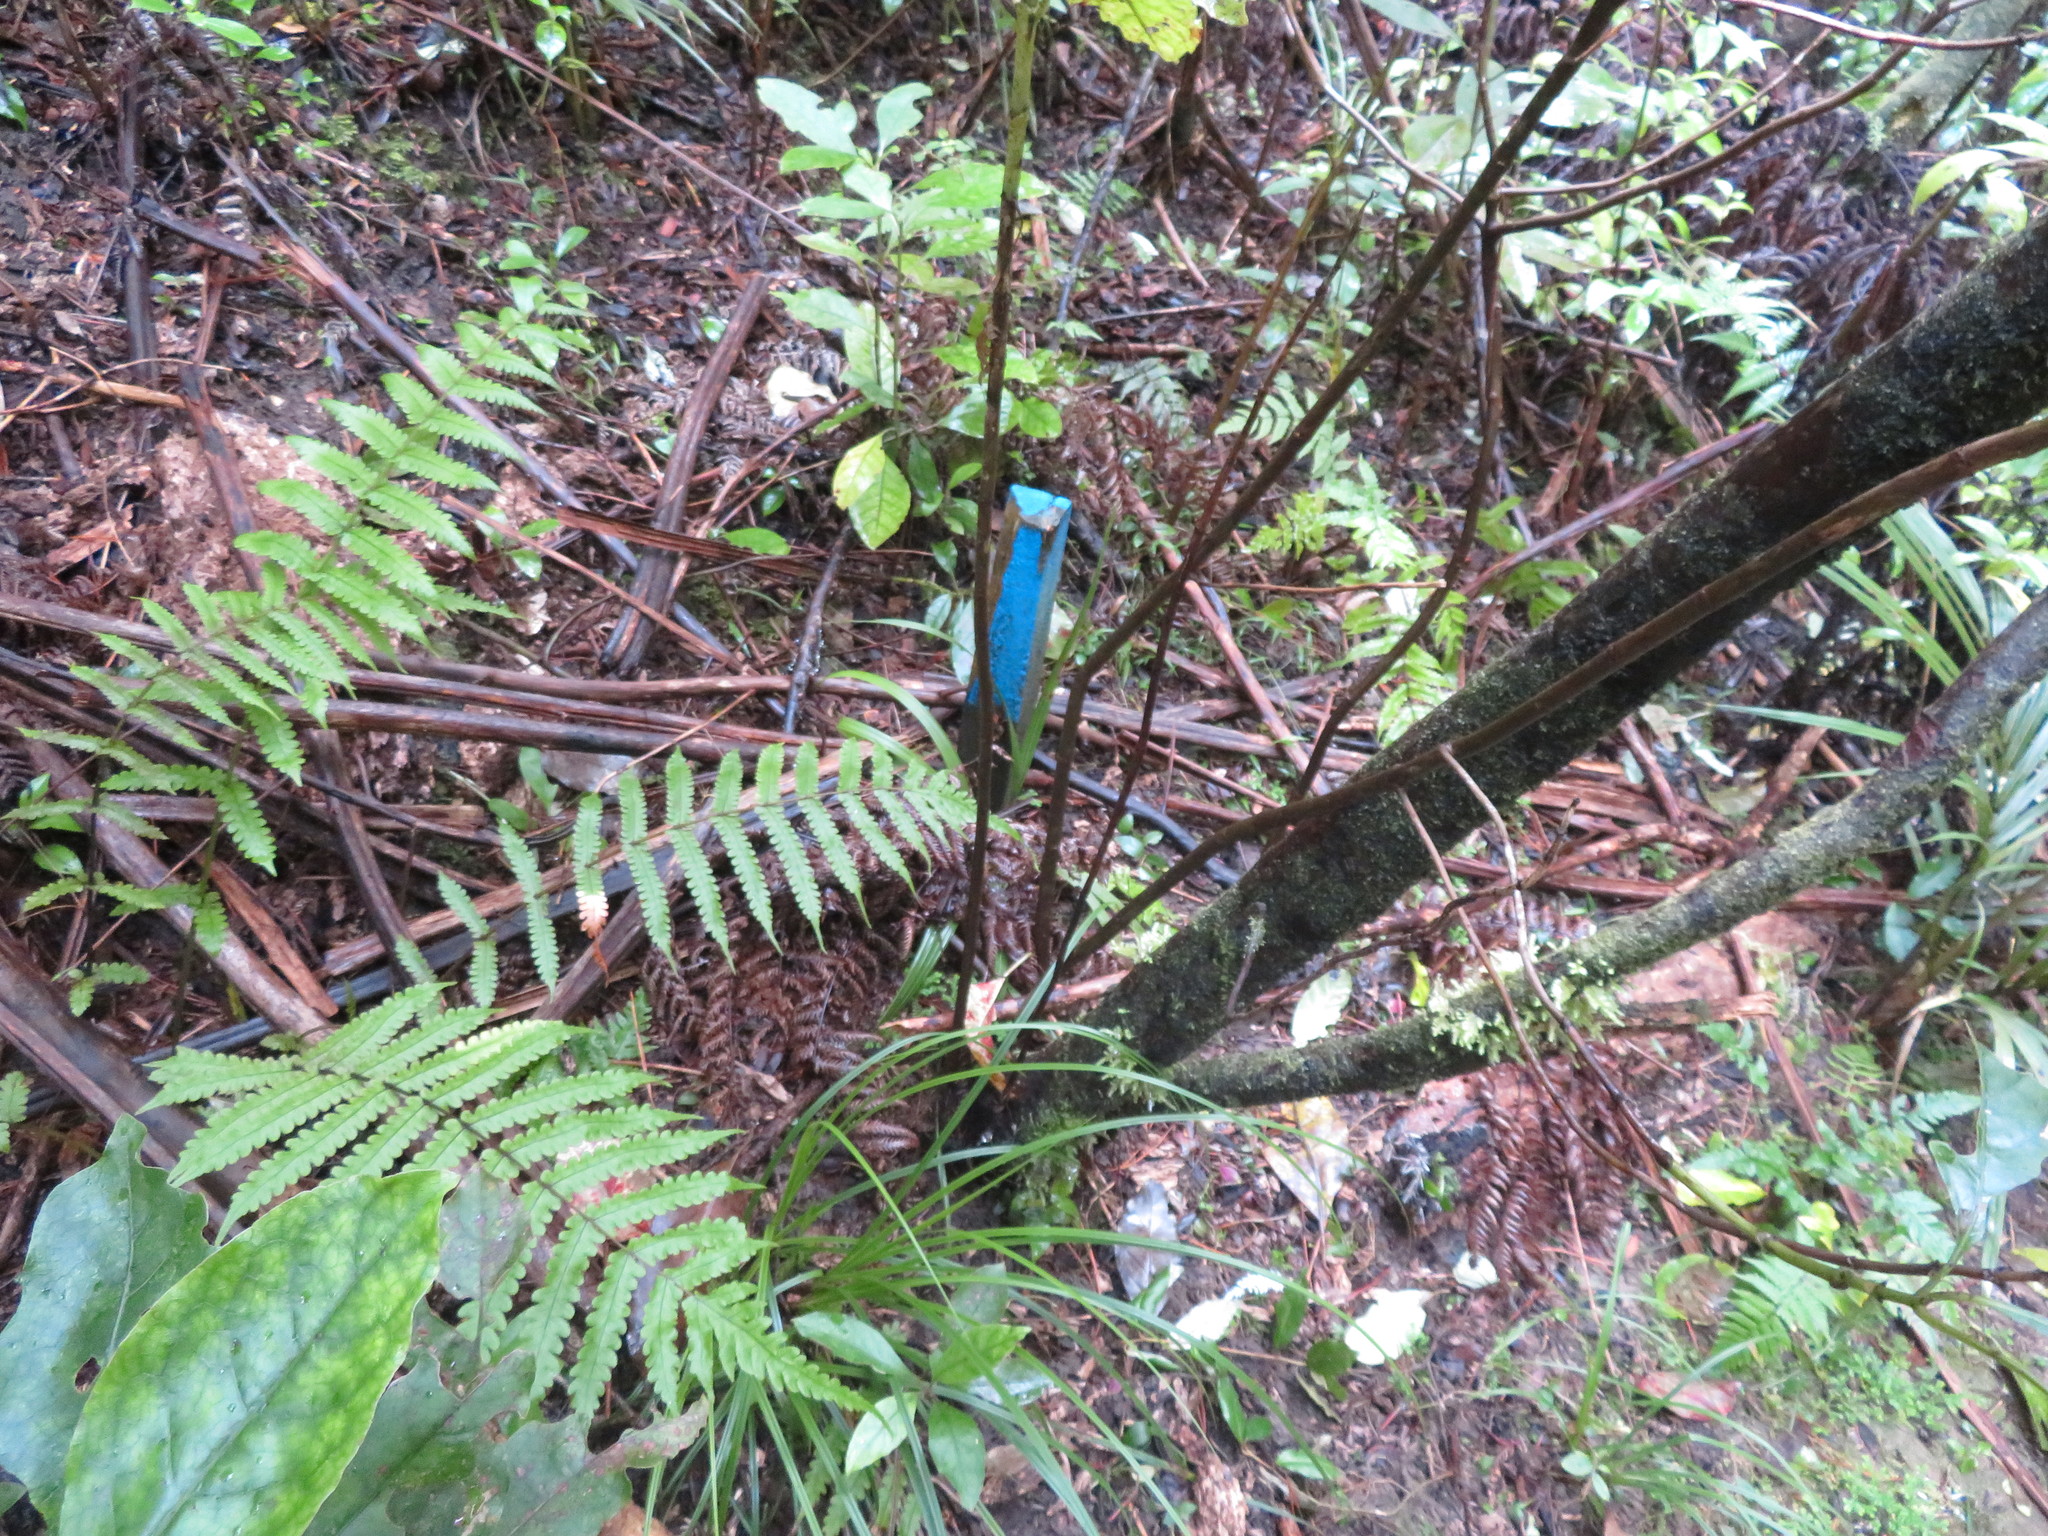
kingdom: Plantae
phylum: Tracheophyta
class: Polypodiopsida
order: Polypodiales
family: Thelypteridaceae
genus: Pakau
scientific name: Pakau pennigera
